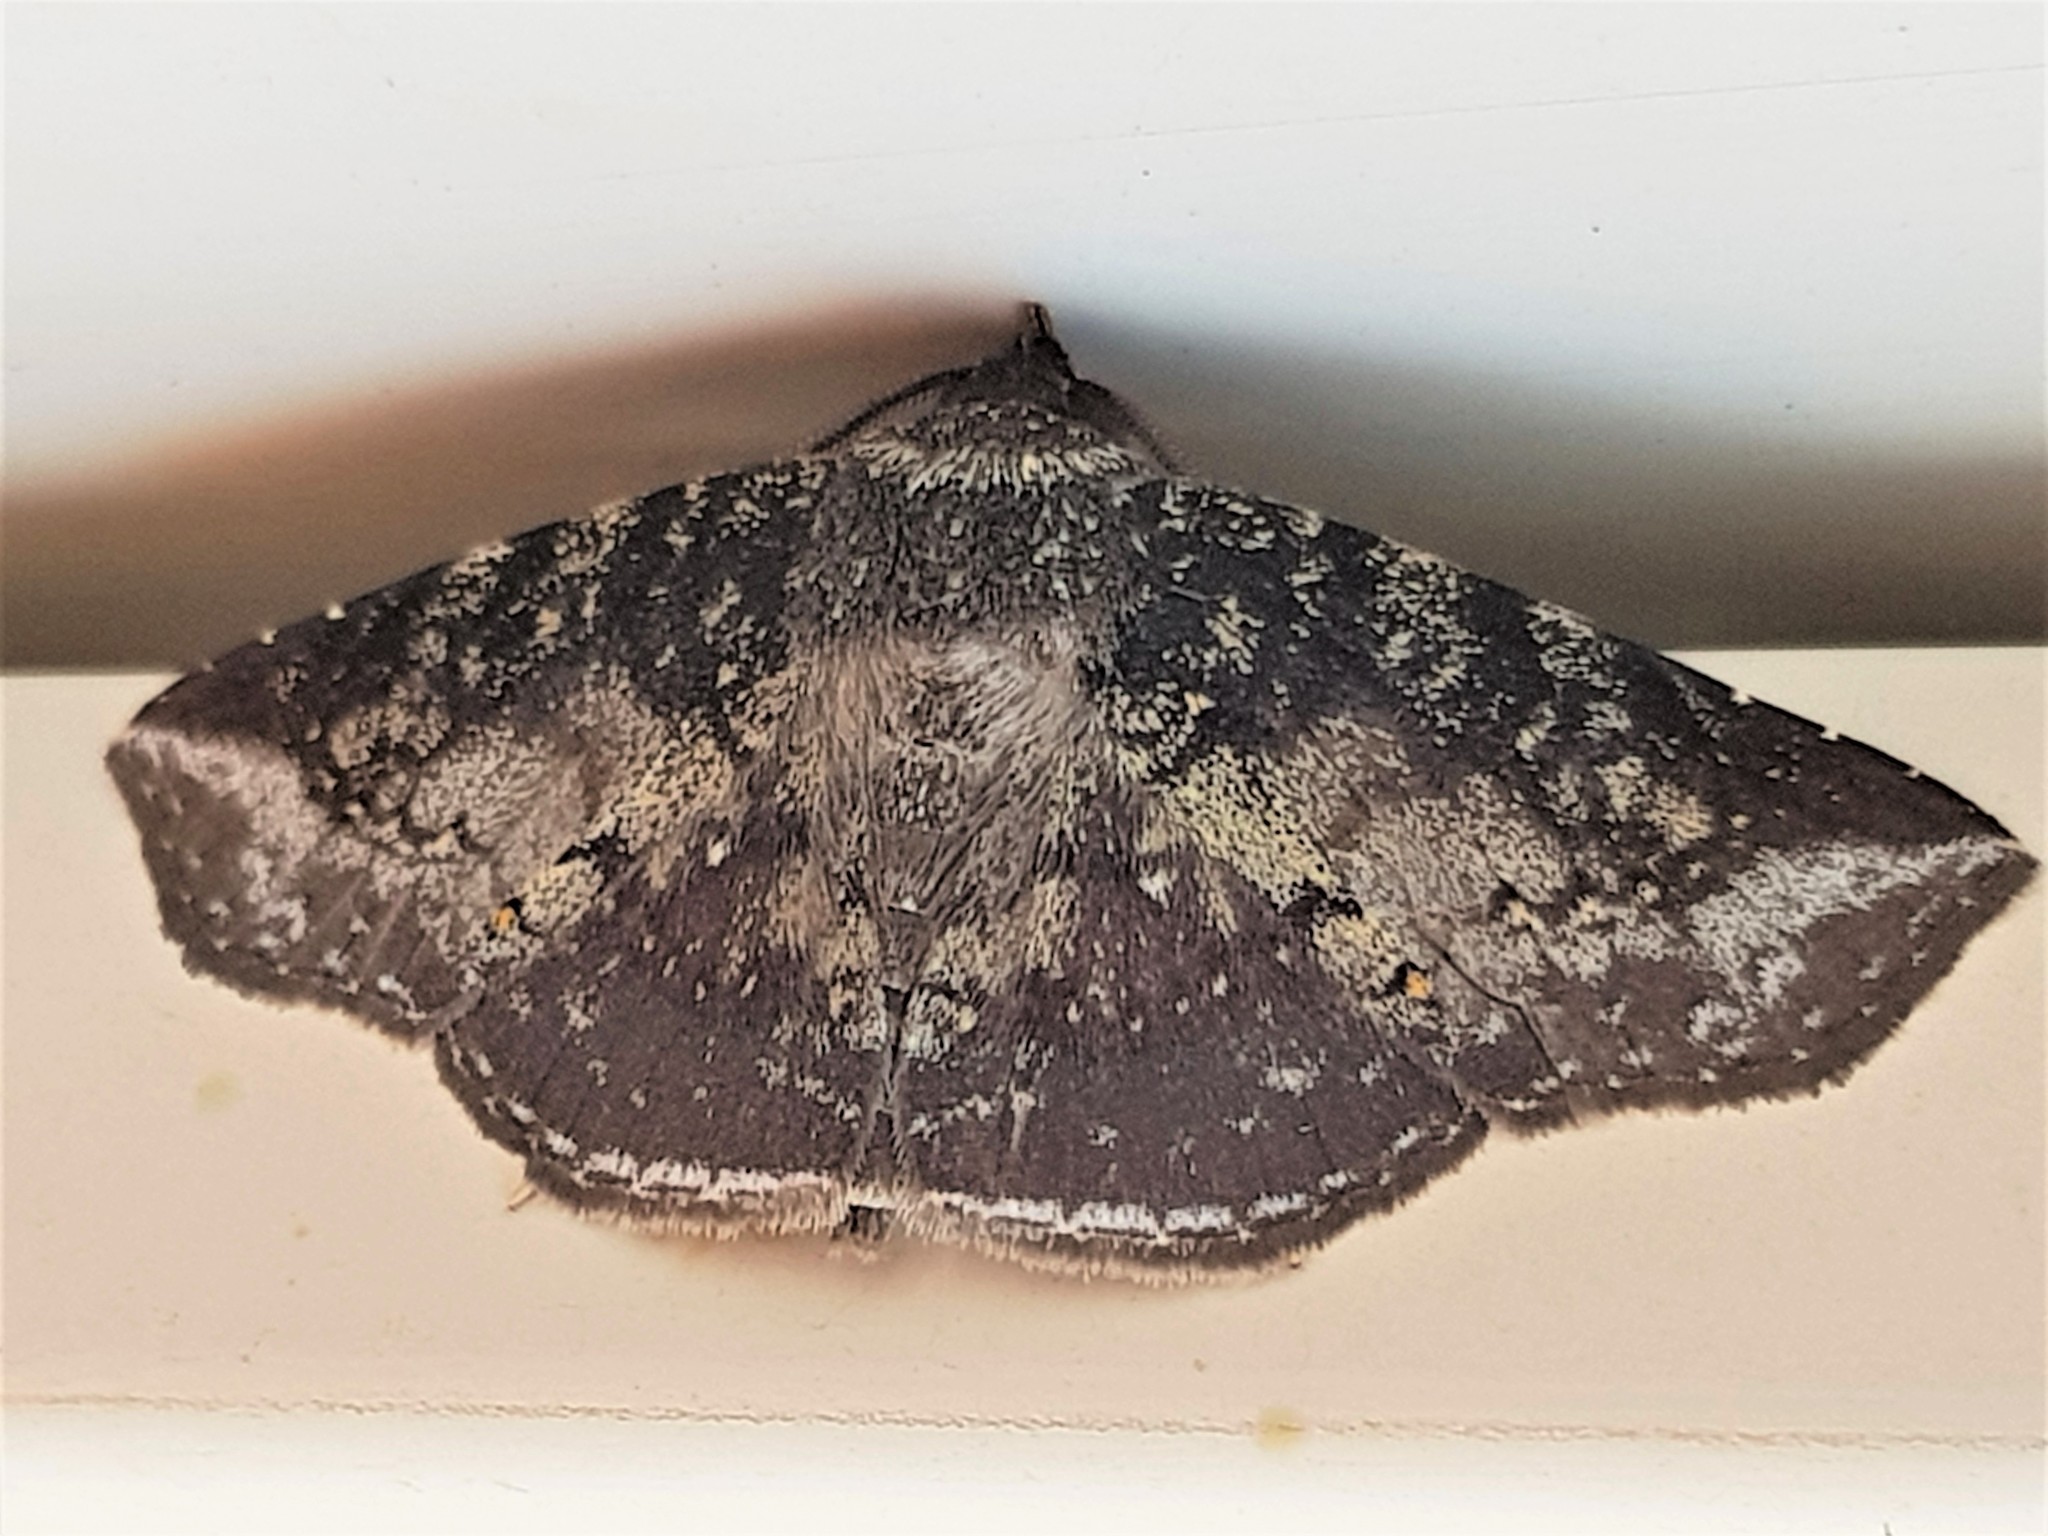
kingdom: Animalia
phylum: Arthropoda
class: Insecta
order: Lepidoptera
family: Erebidae
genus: Manbuta
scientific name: Manbuta
